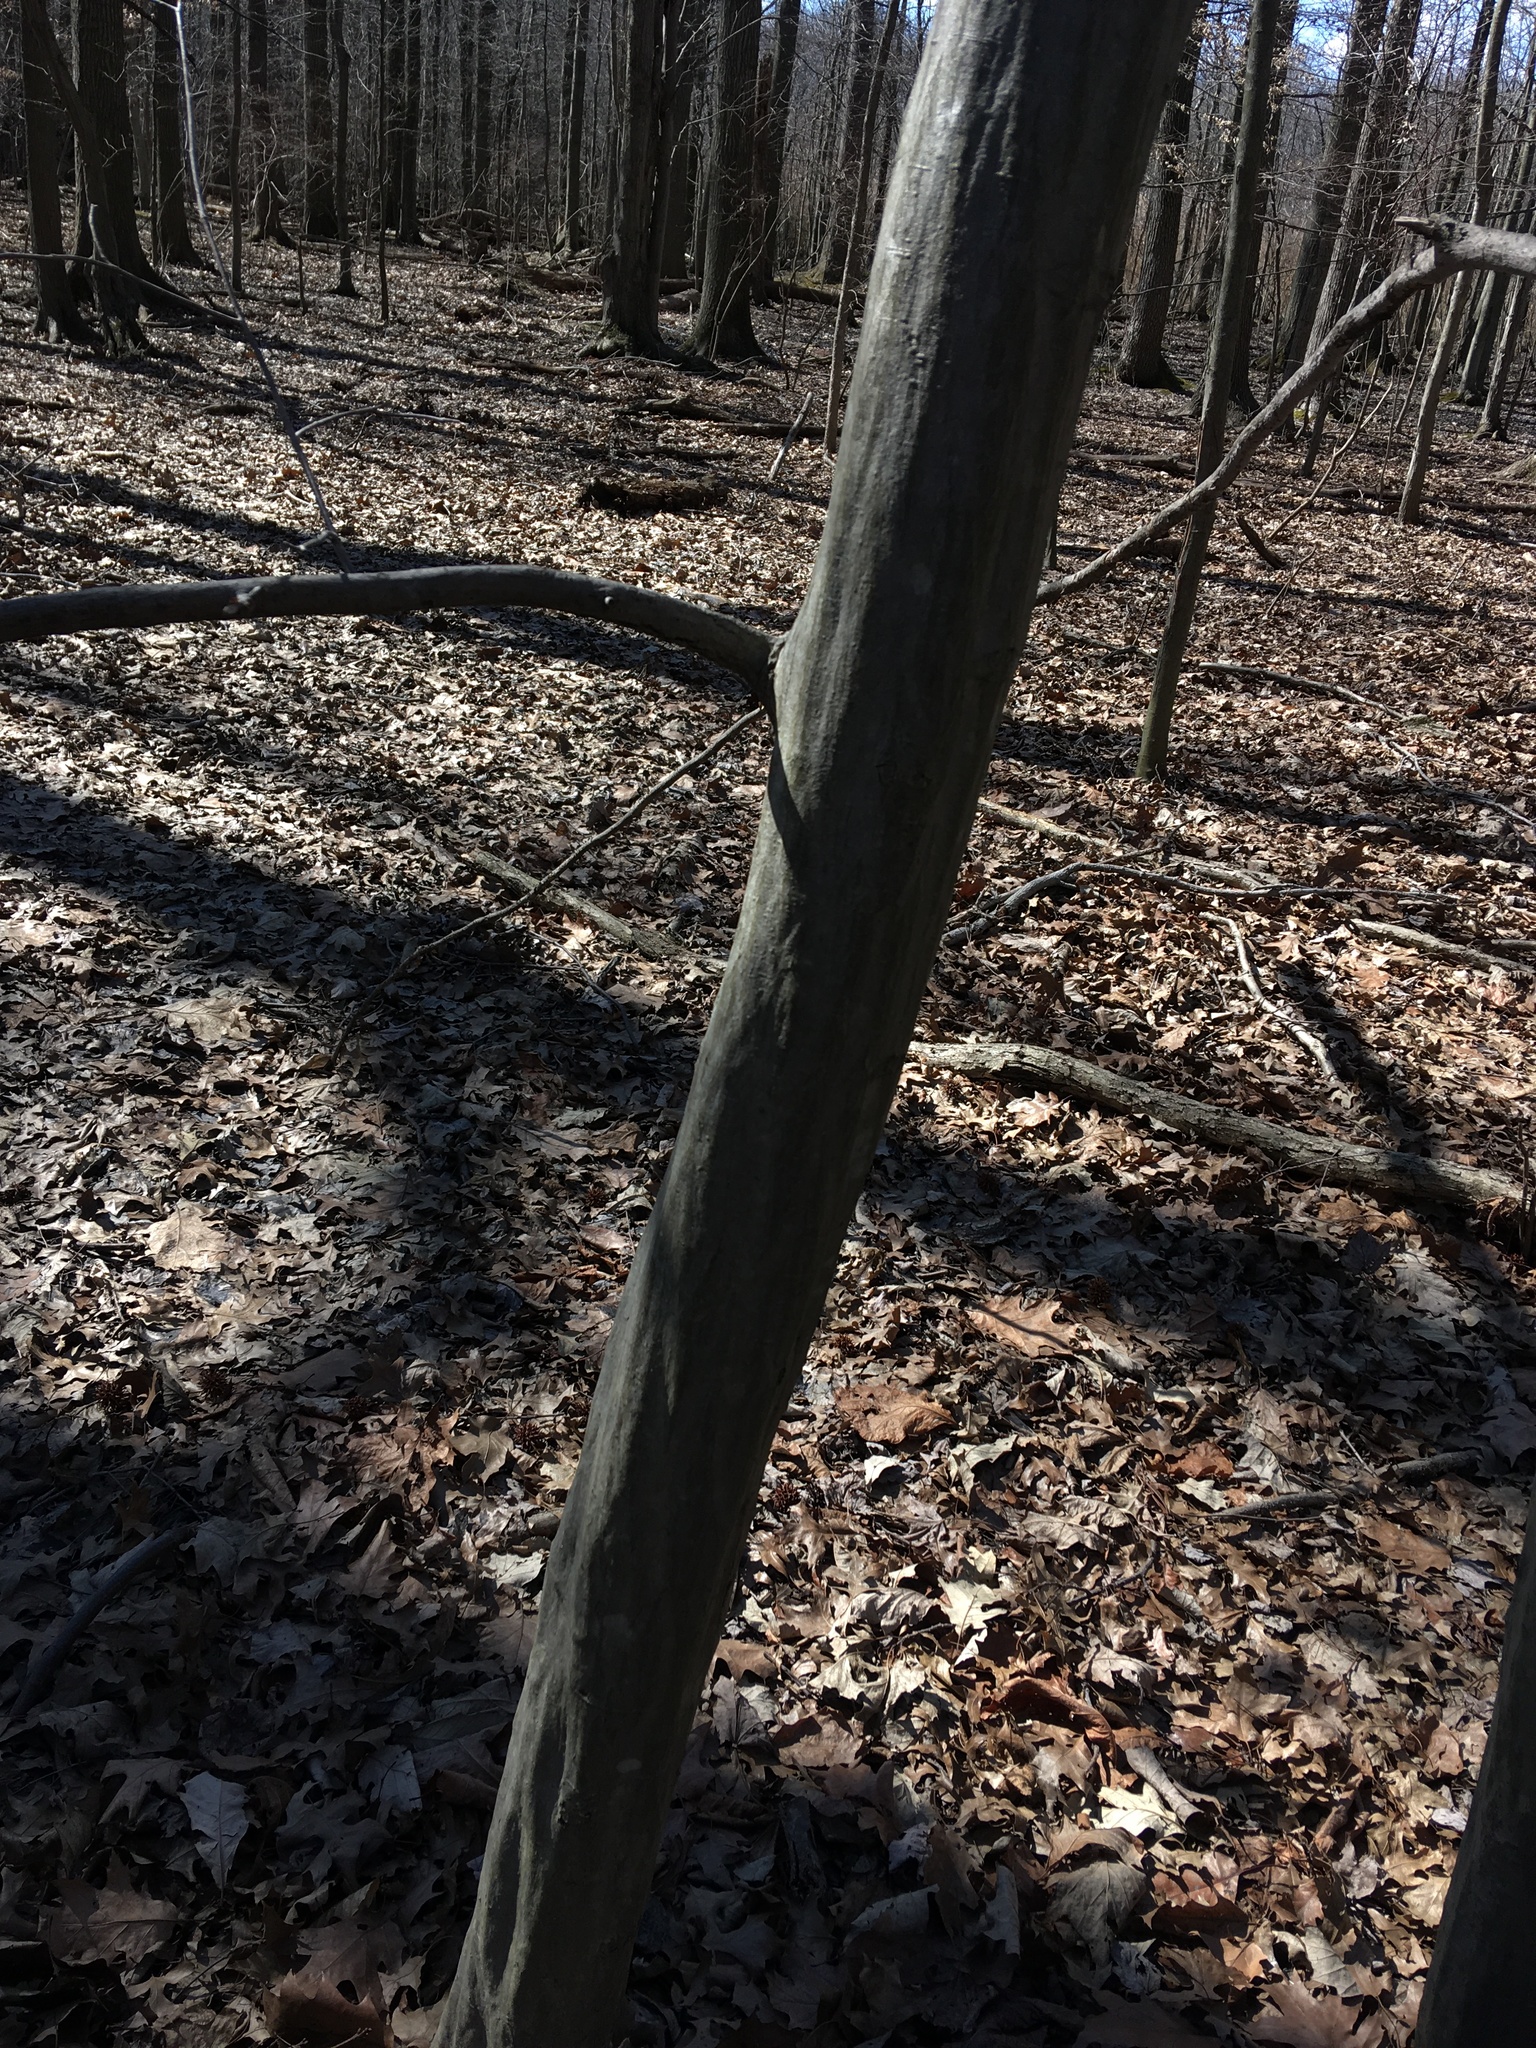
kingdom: Plantae
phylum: Tracheophyta
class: Magnoliopsida
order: Fagales
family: Betulaceae
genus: Carpinus
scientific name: Carpinus caroliniana
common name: American hornbeam
